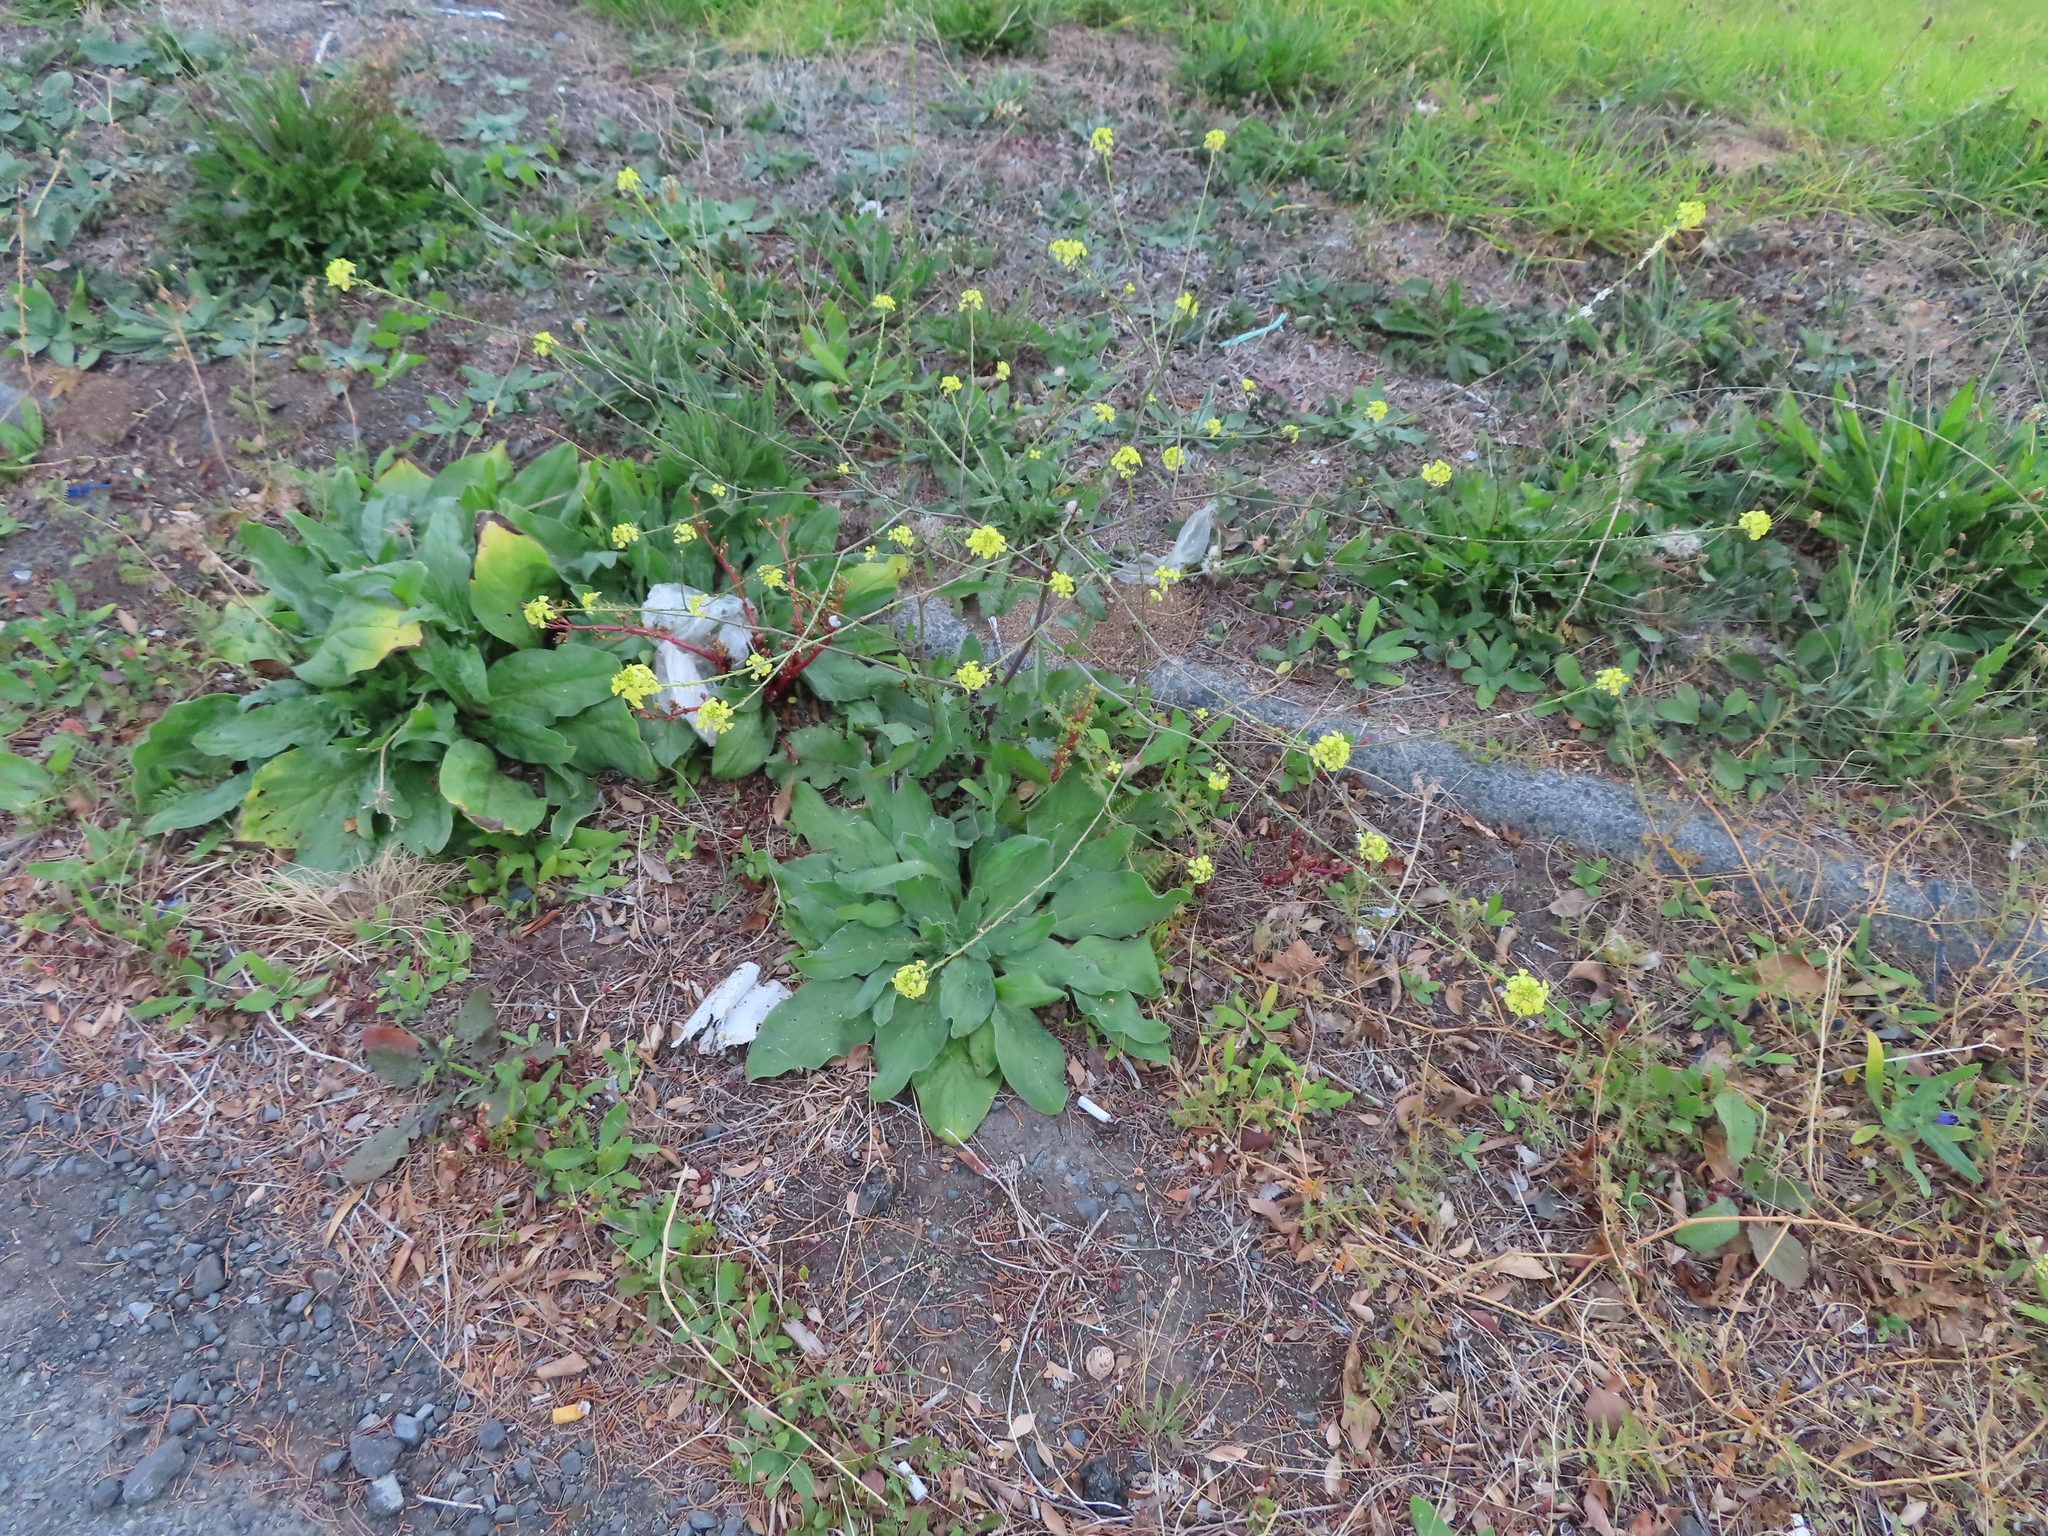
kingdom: Plantae
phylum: Tracheophyta
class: Magnoliopsida
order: Brassicales
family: Brassicaceae
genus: Rapistrum
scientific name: Rapistrum rugosum
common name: Annual bastardcabbage
